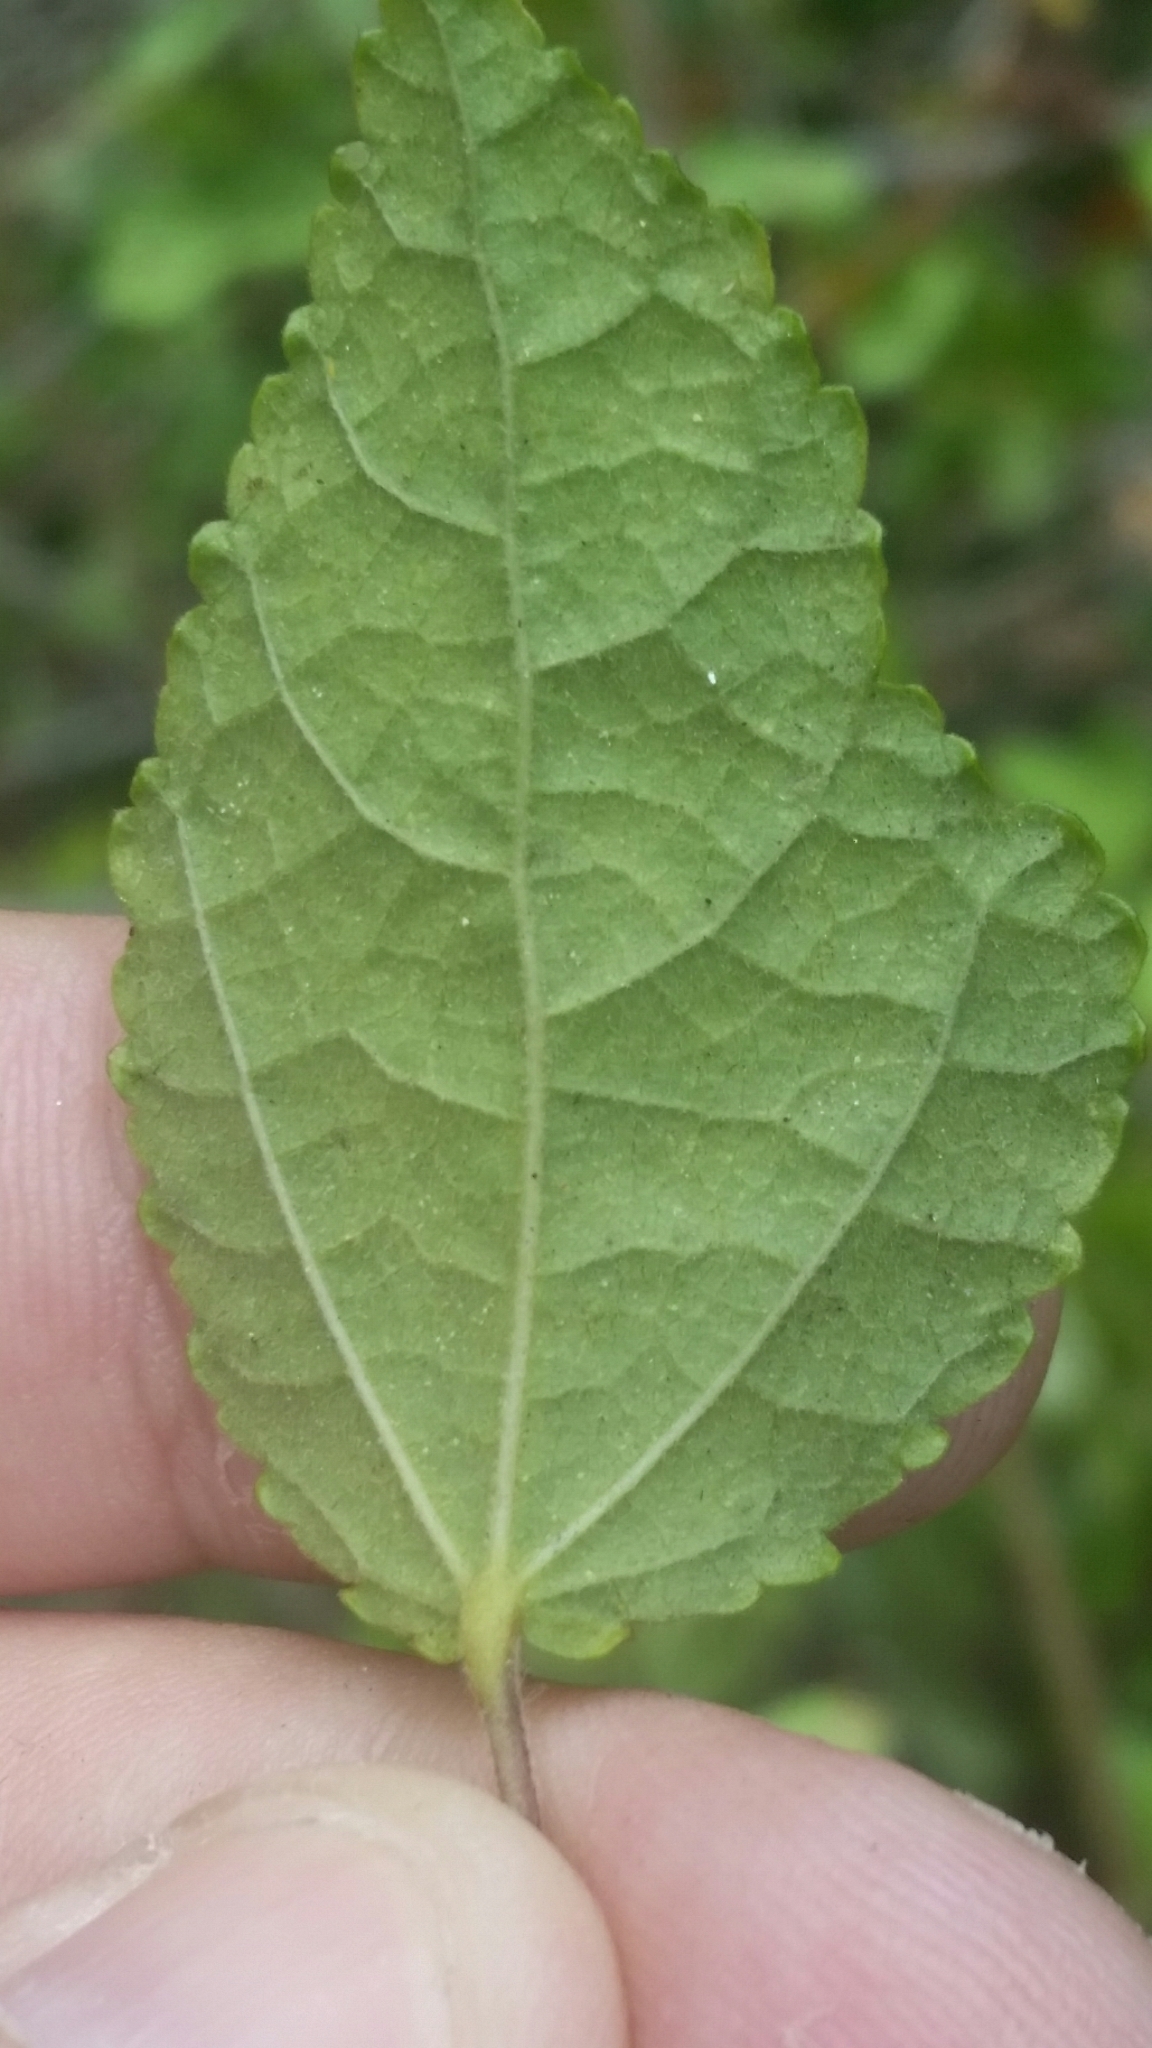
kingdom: Plantae
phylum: Tracheophyta
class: Magnoliopsida
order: Malvales
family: Malvaceae
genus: Triumfetta
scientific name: Triumfetta semitriloba
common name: Sacramento burbark
